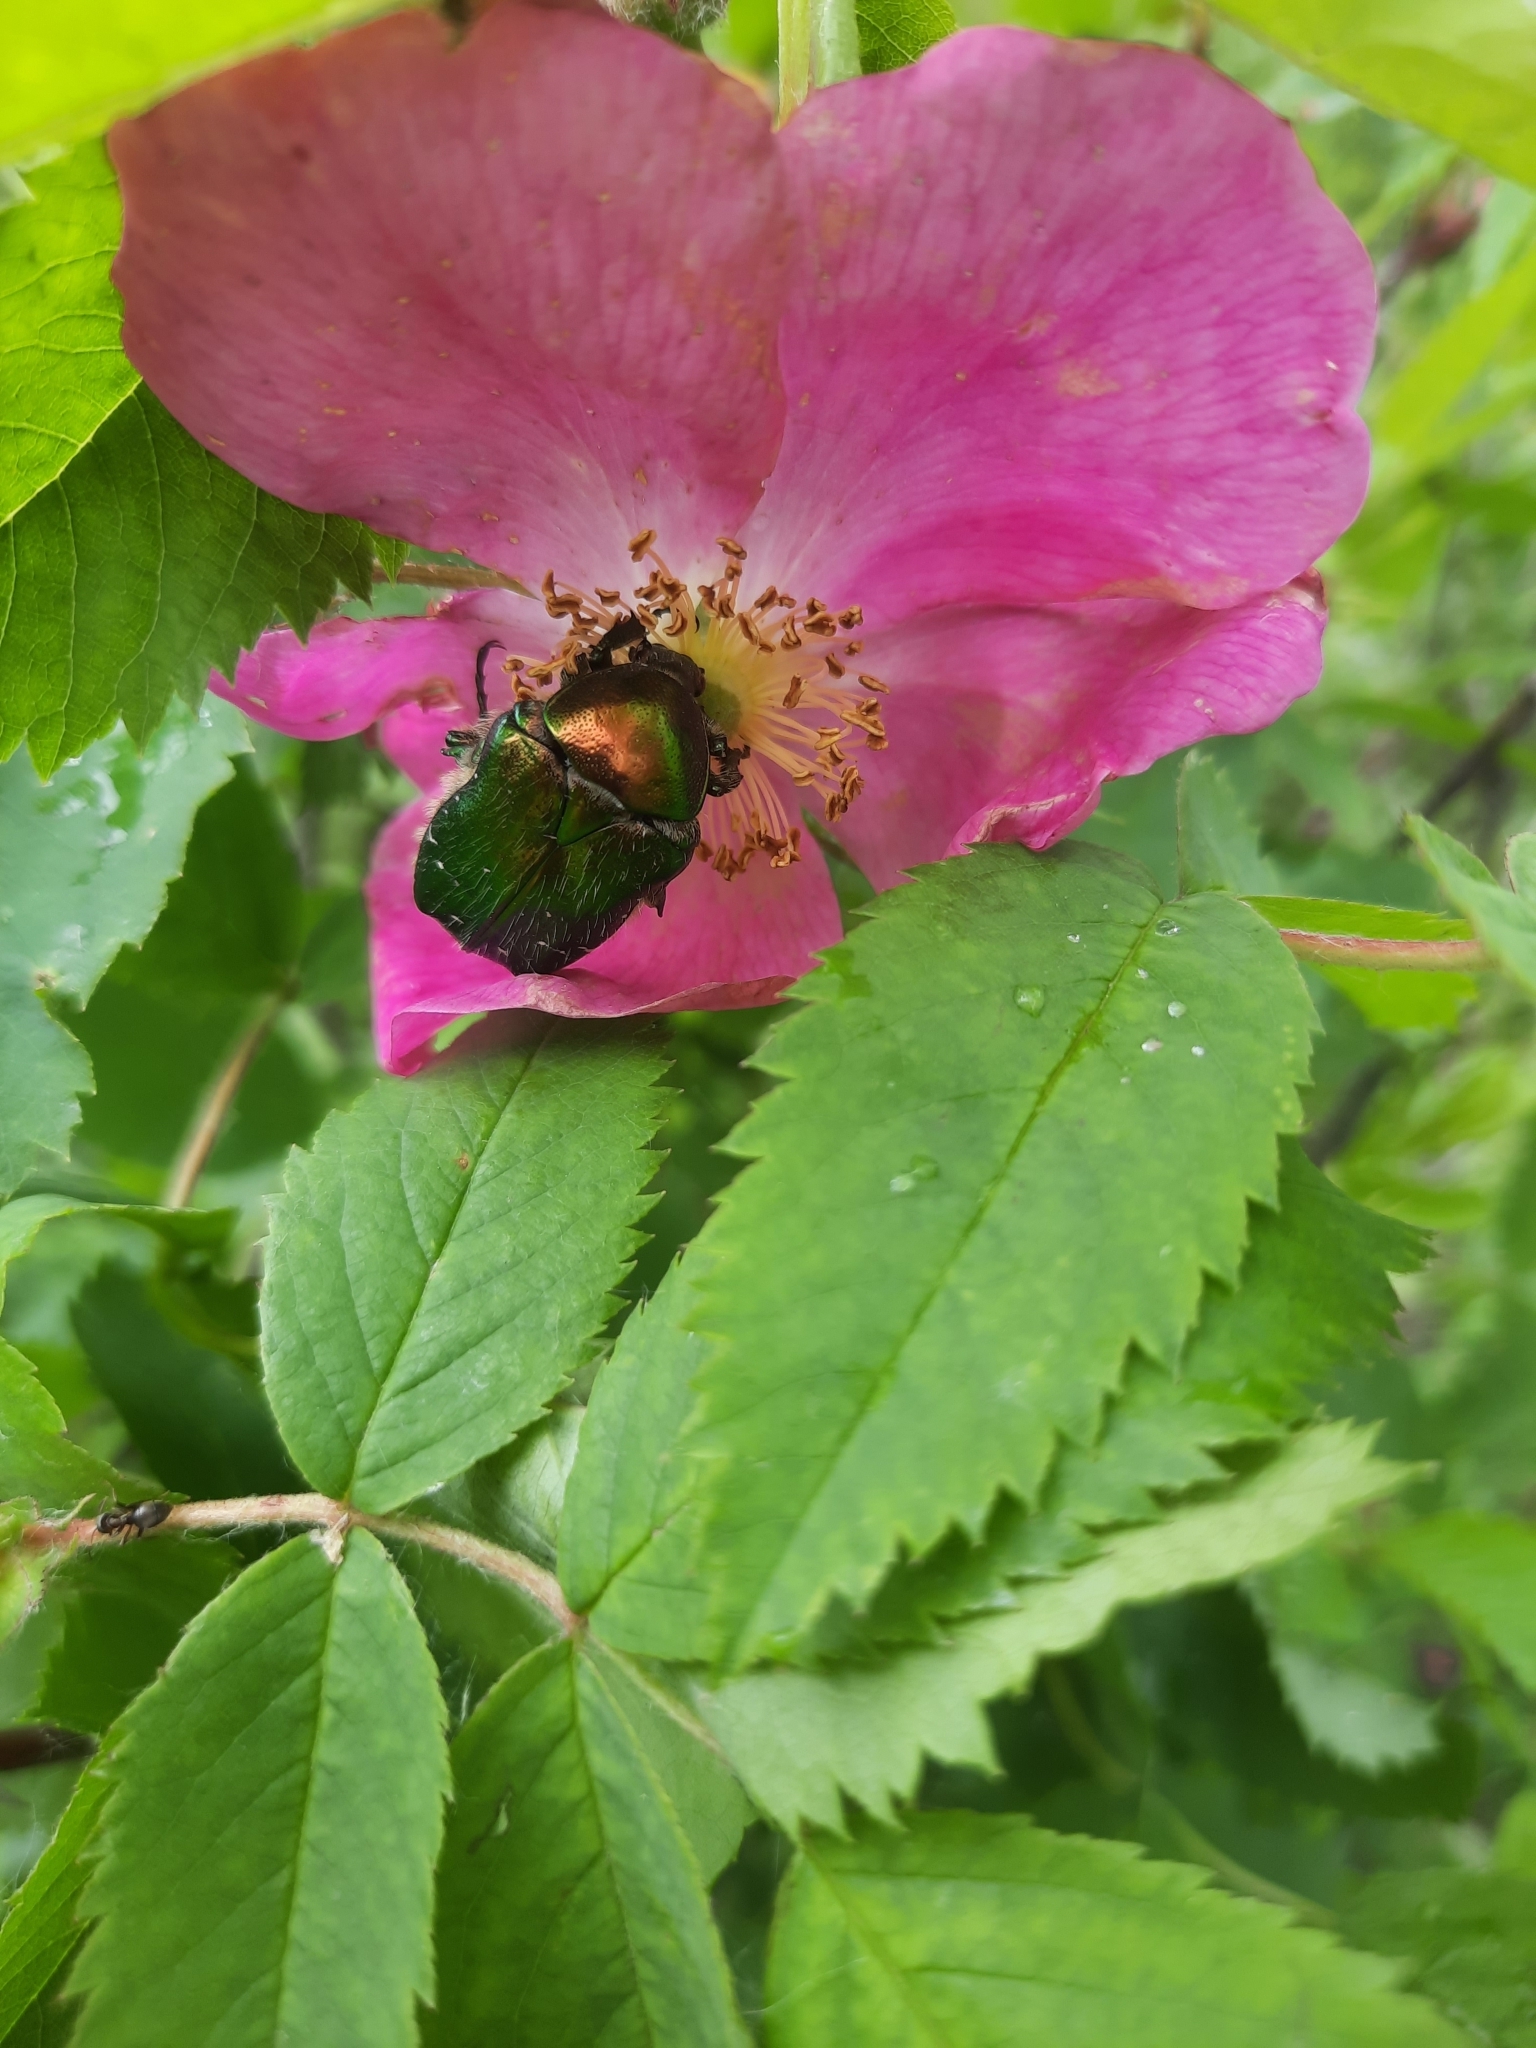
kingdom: Animalia
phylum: Arthropoda
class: Insecta
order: Coleoptera
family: Scarabaeidae
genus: Cetonia
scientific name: Cetonia aurata
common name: Rose chafer
